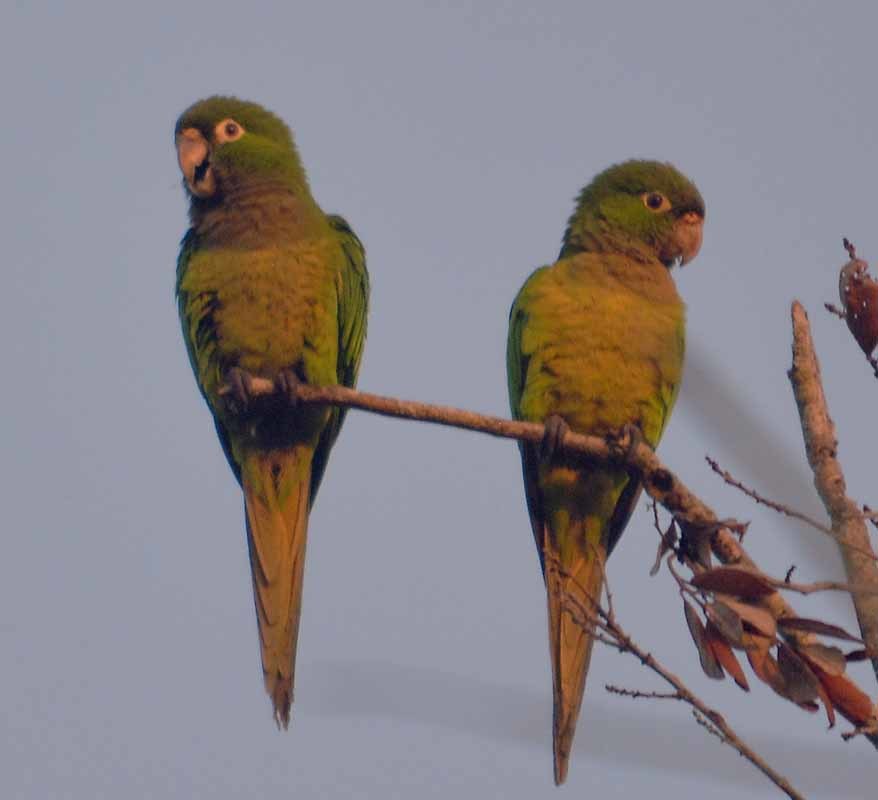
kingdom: Animalia
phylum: Chordata
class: Aves
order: Psittaciformes
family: Psittacidae
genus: Aratinga
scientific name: Aratinga nana
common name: Olive-throated parakeet
